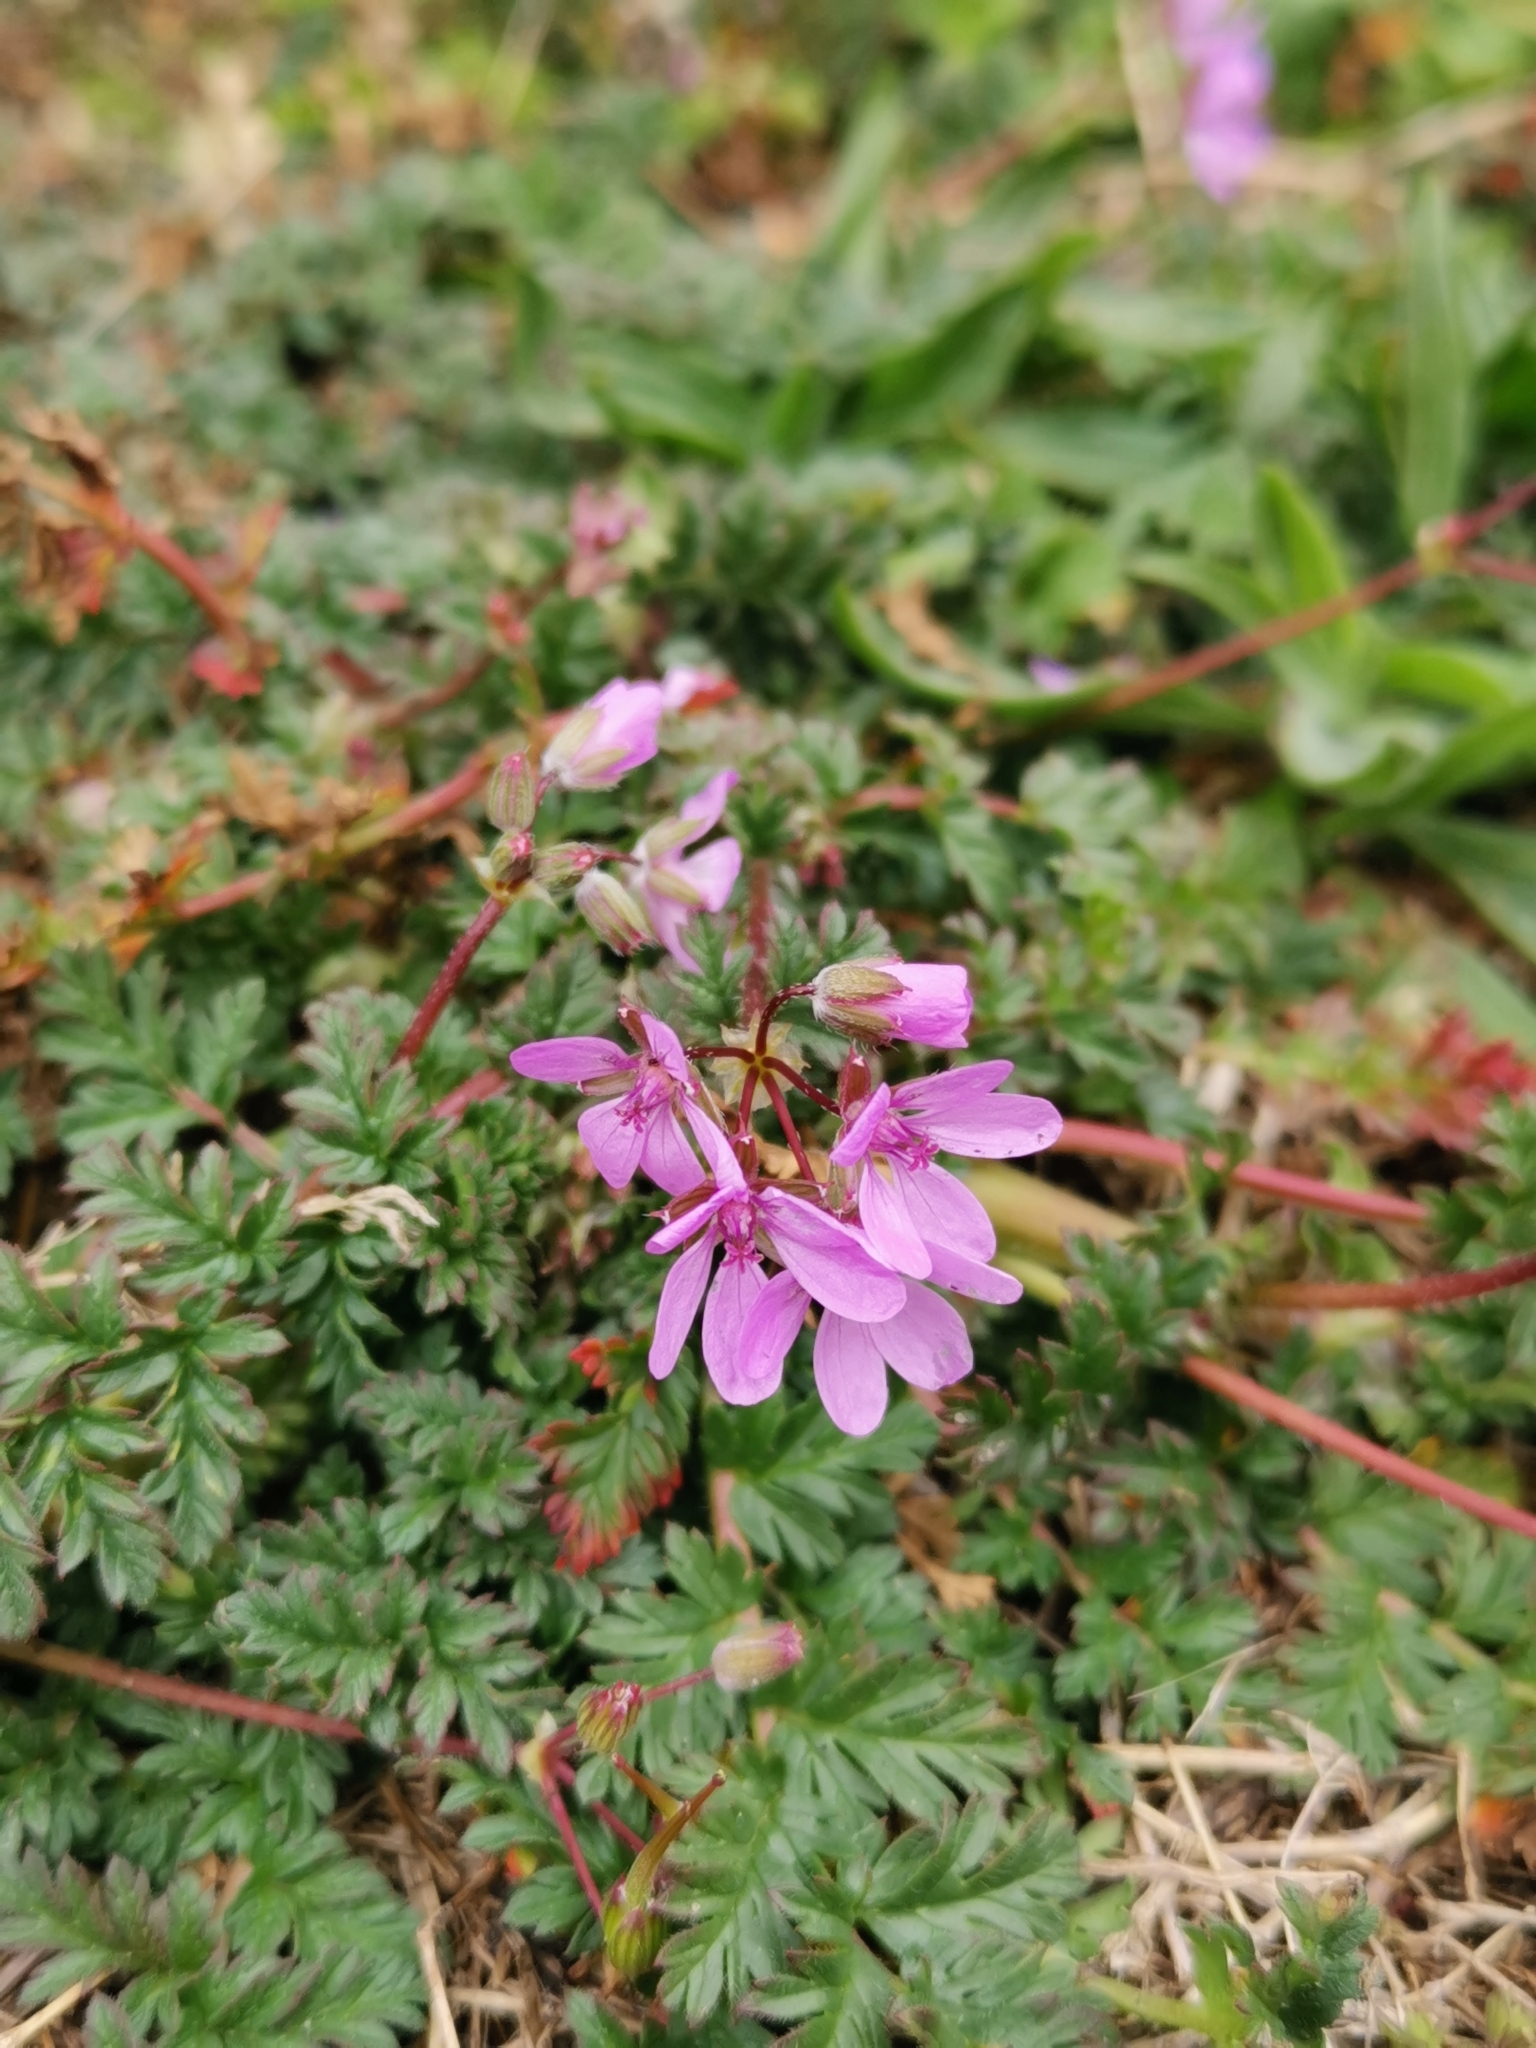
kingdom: Plantae
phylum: Tracheophyta
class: Magnoliopsida
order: Geraniales
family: Geraniaceae
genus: Erodium
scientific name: Erodium cicutarium
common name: Common stork's-bill
